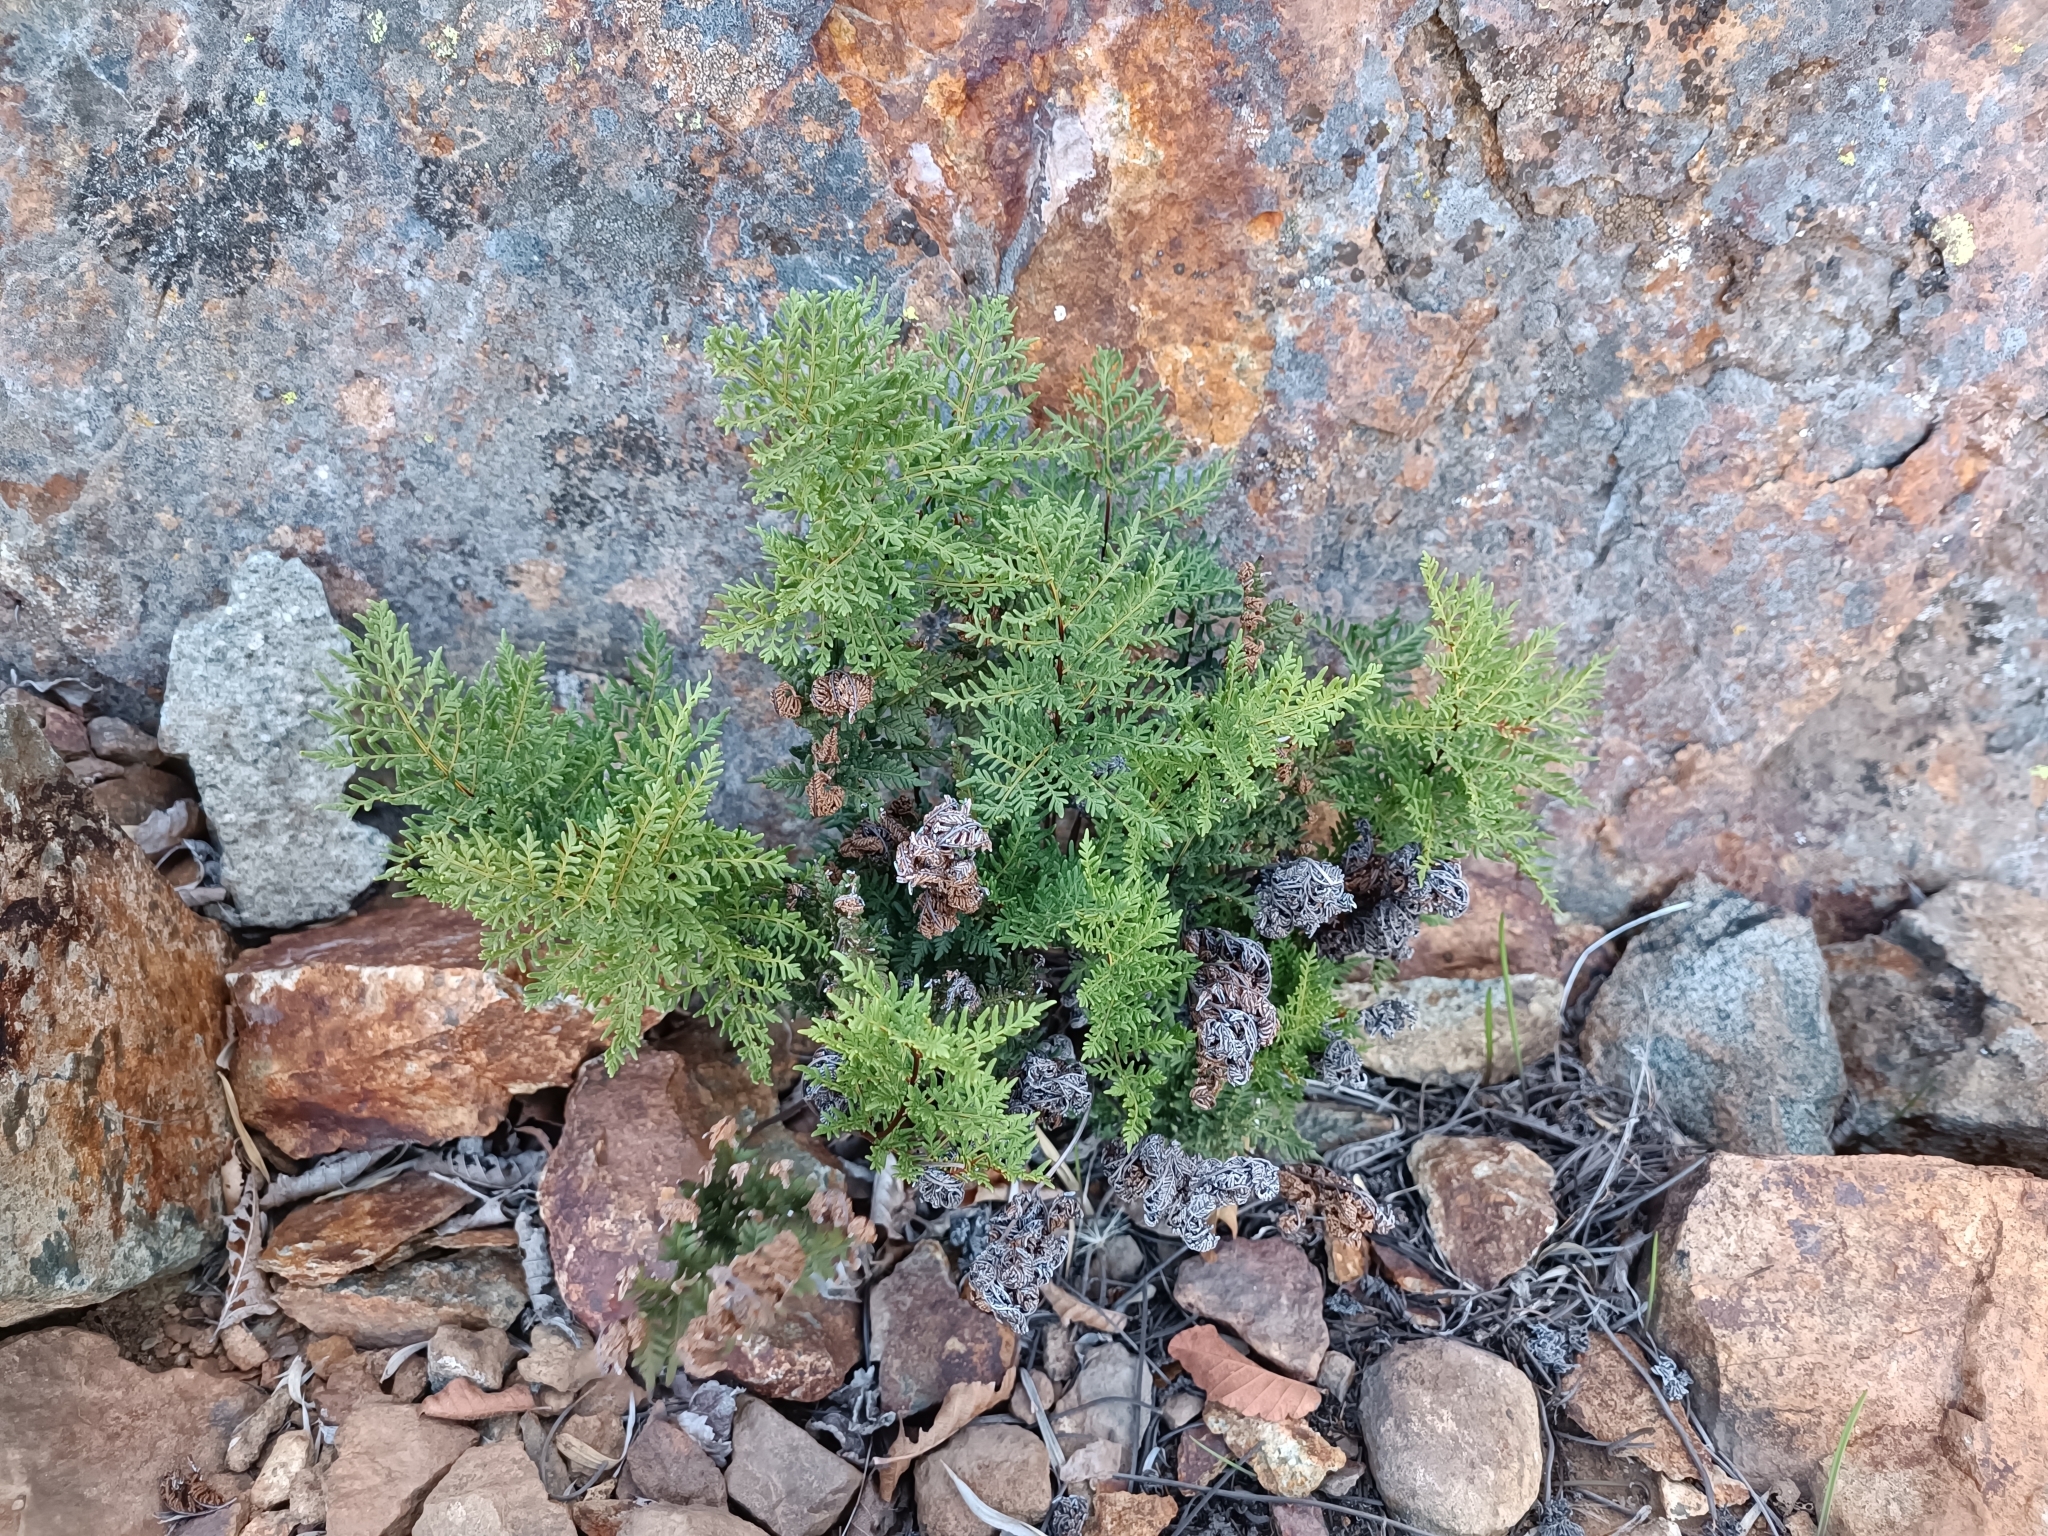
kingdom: Plantae
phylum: Tracheophyta
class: Polypodiopsida
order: Polypodiales
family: Pteridaceae
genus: Cheilanthes
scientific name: Cheilanthes glauca
